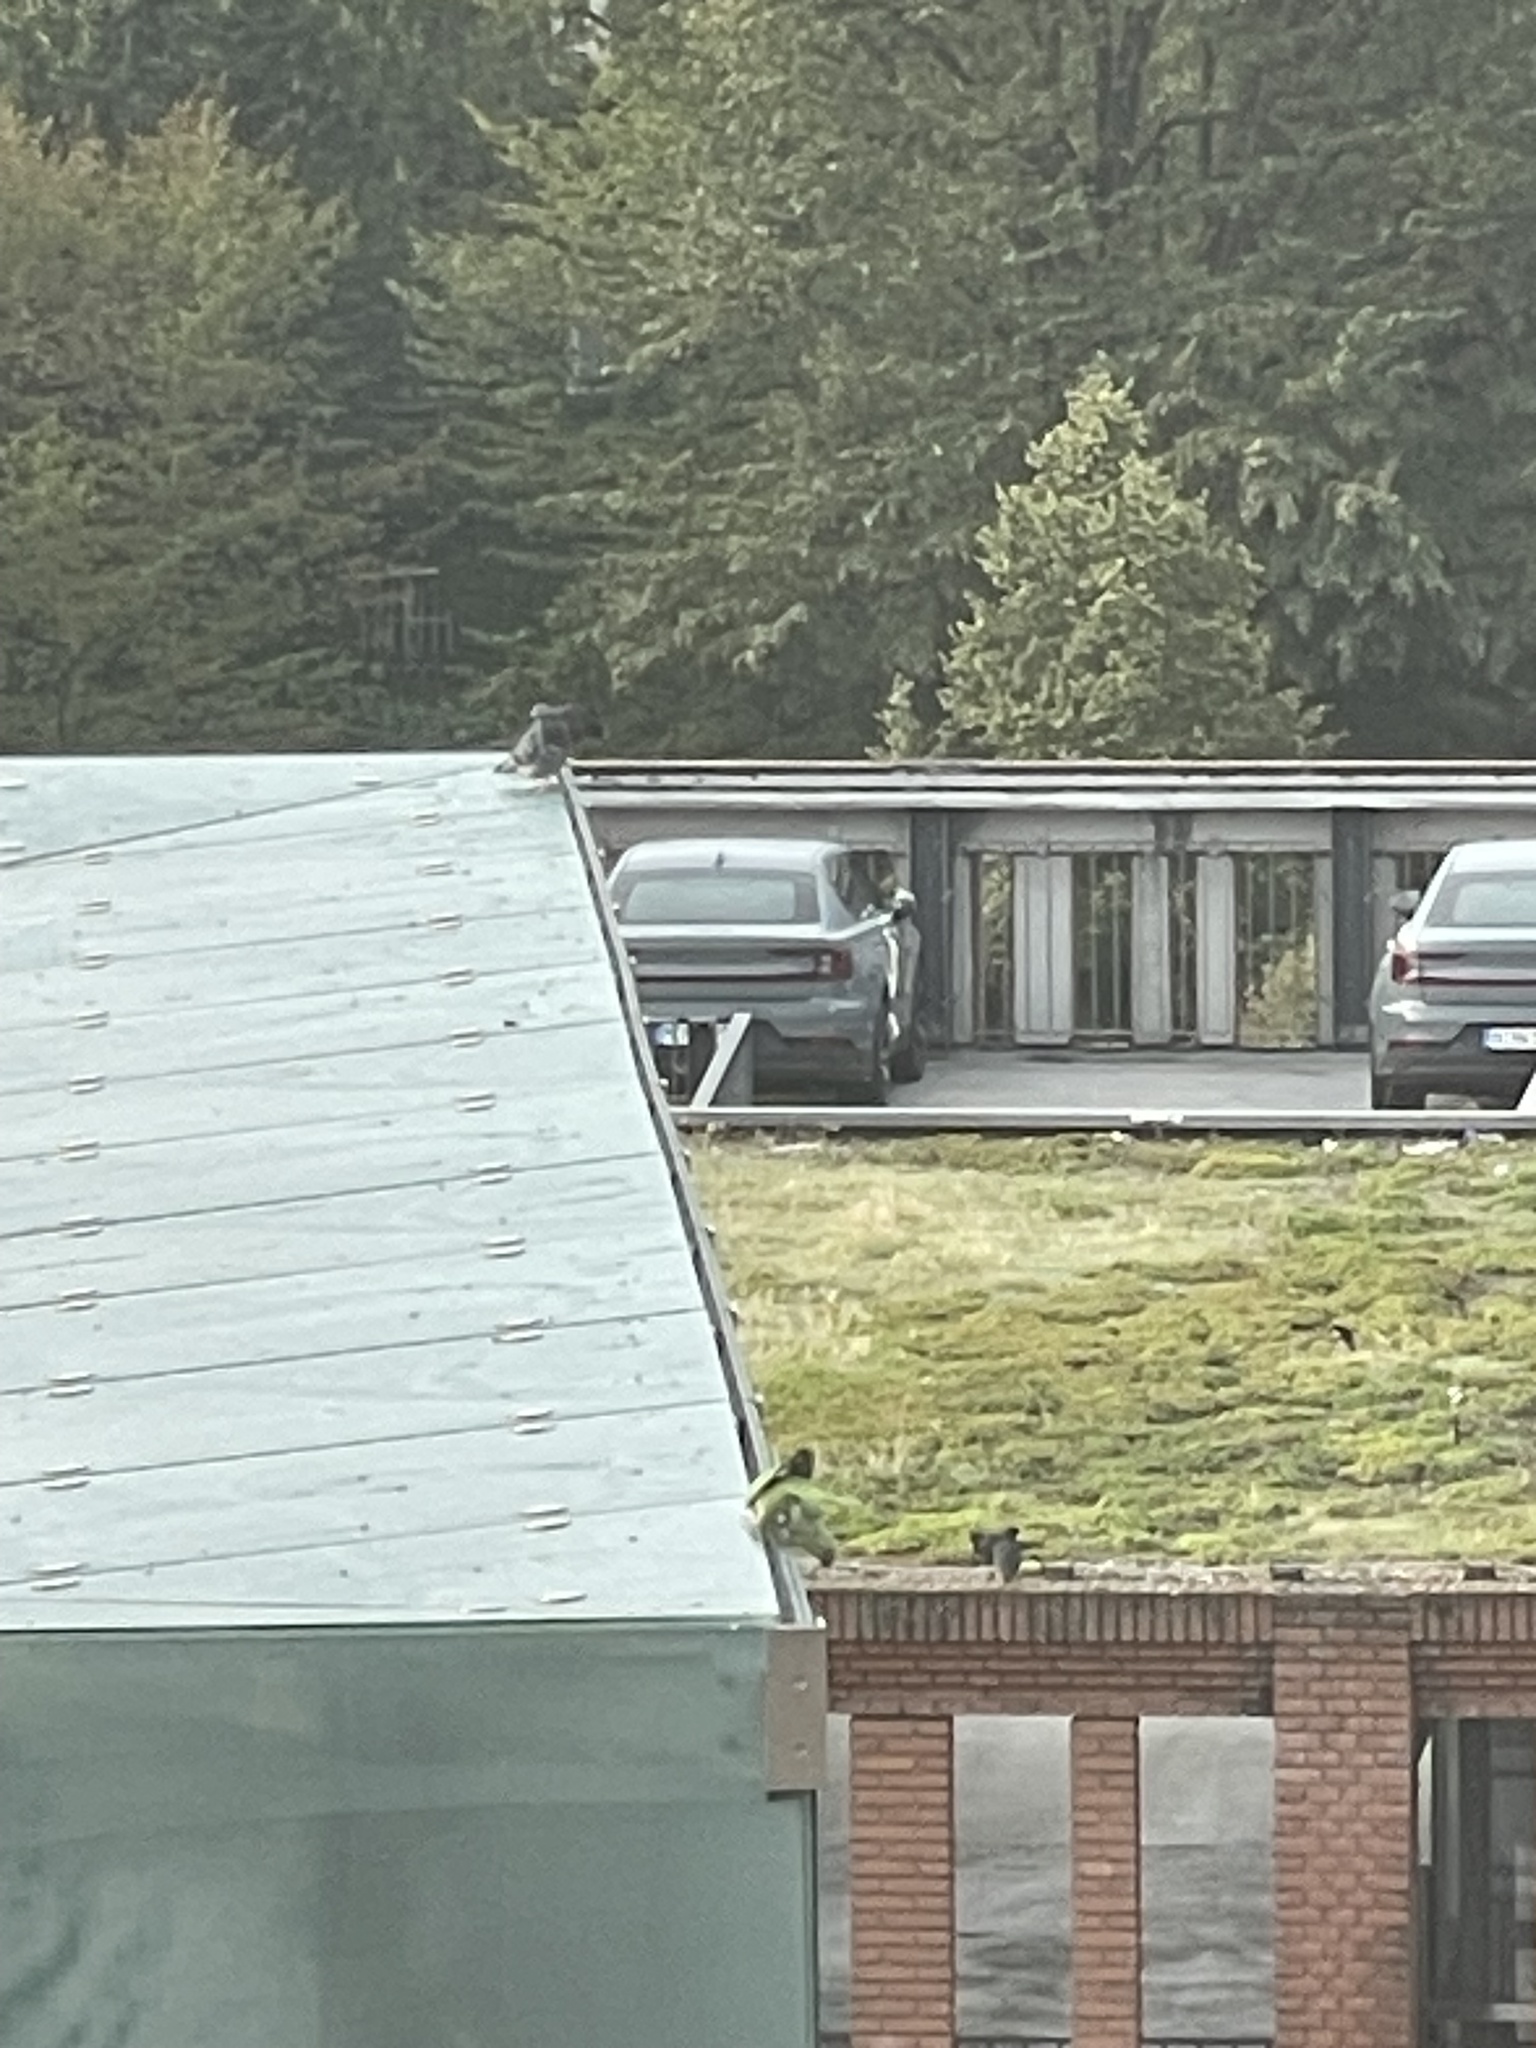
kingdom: Animalia
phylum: Chordata
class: Aves
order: Psittaciformes
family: Psittacidae
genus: Psittacula
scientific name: Psittacula krameri
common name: Rose-ringed parakeet
